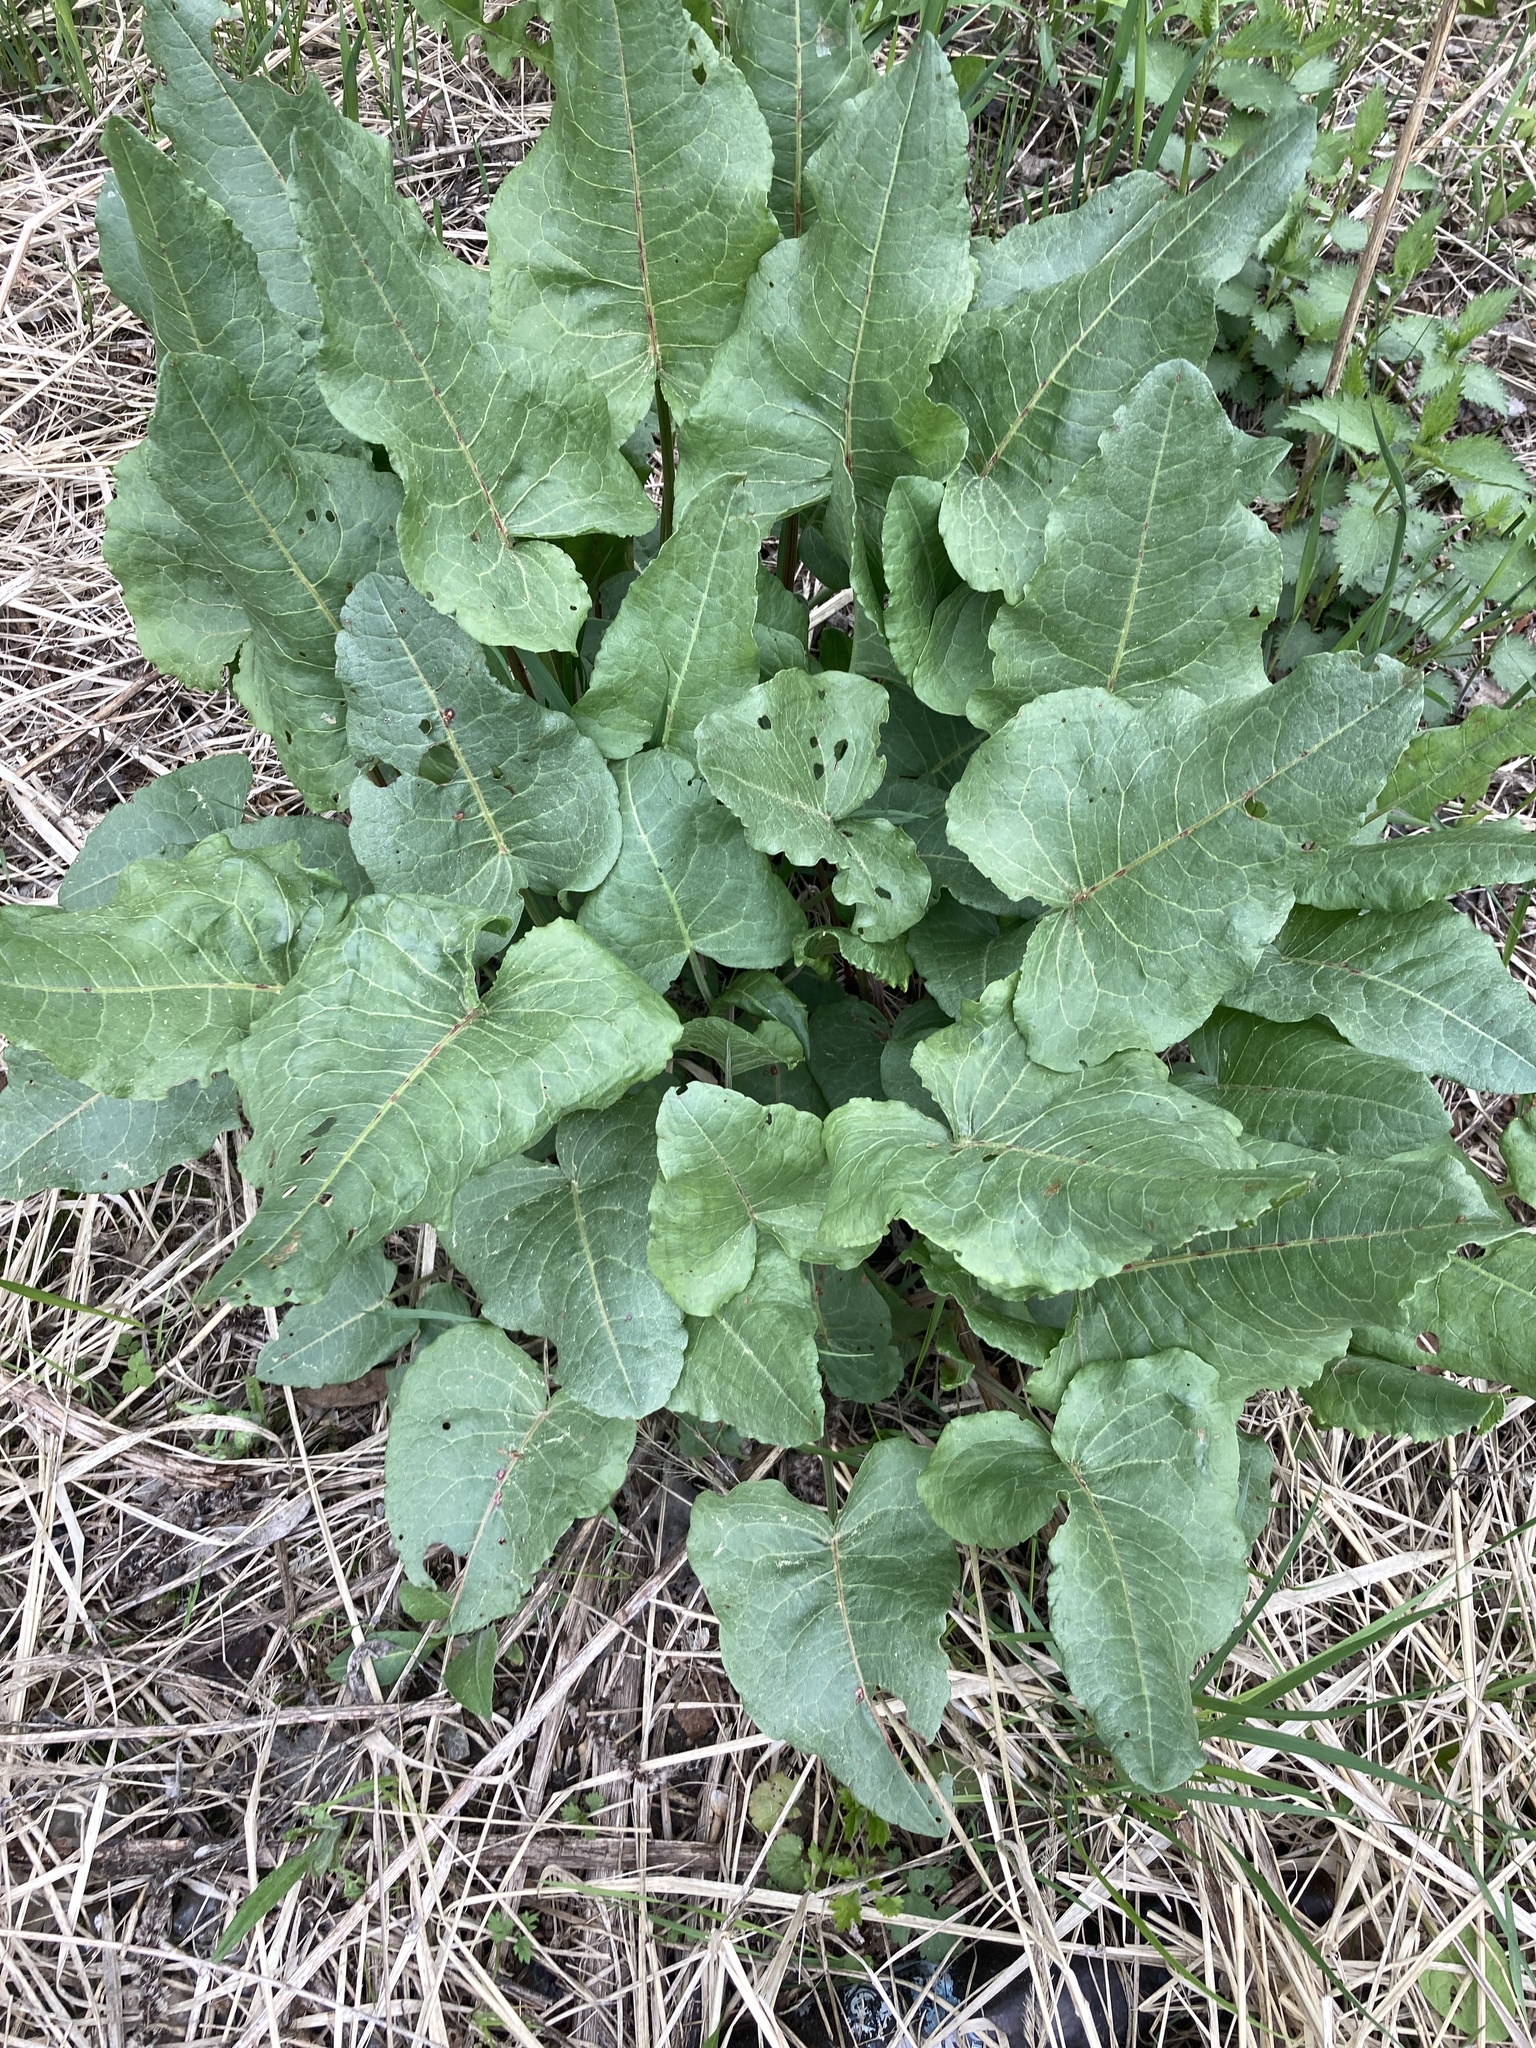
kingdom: Plantae
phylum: Tracheophyta
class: Magnoliopsida
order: Caryophyllales
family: Polygonaceae
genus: Rumex
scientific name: Rumex confertus
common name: Russian dock
